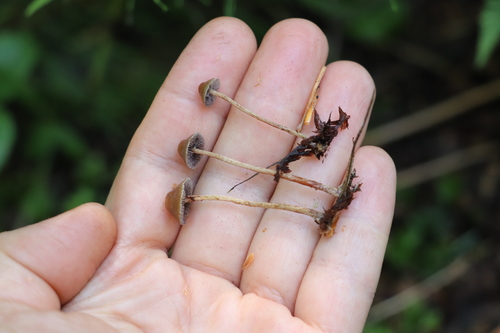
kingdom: Fungi
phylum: Basidiomycota
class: Agaricomycetes
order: Agaricales
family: Strophariaceae
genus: Deconica
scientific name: Deconica phyllogena
